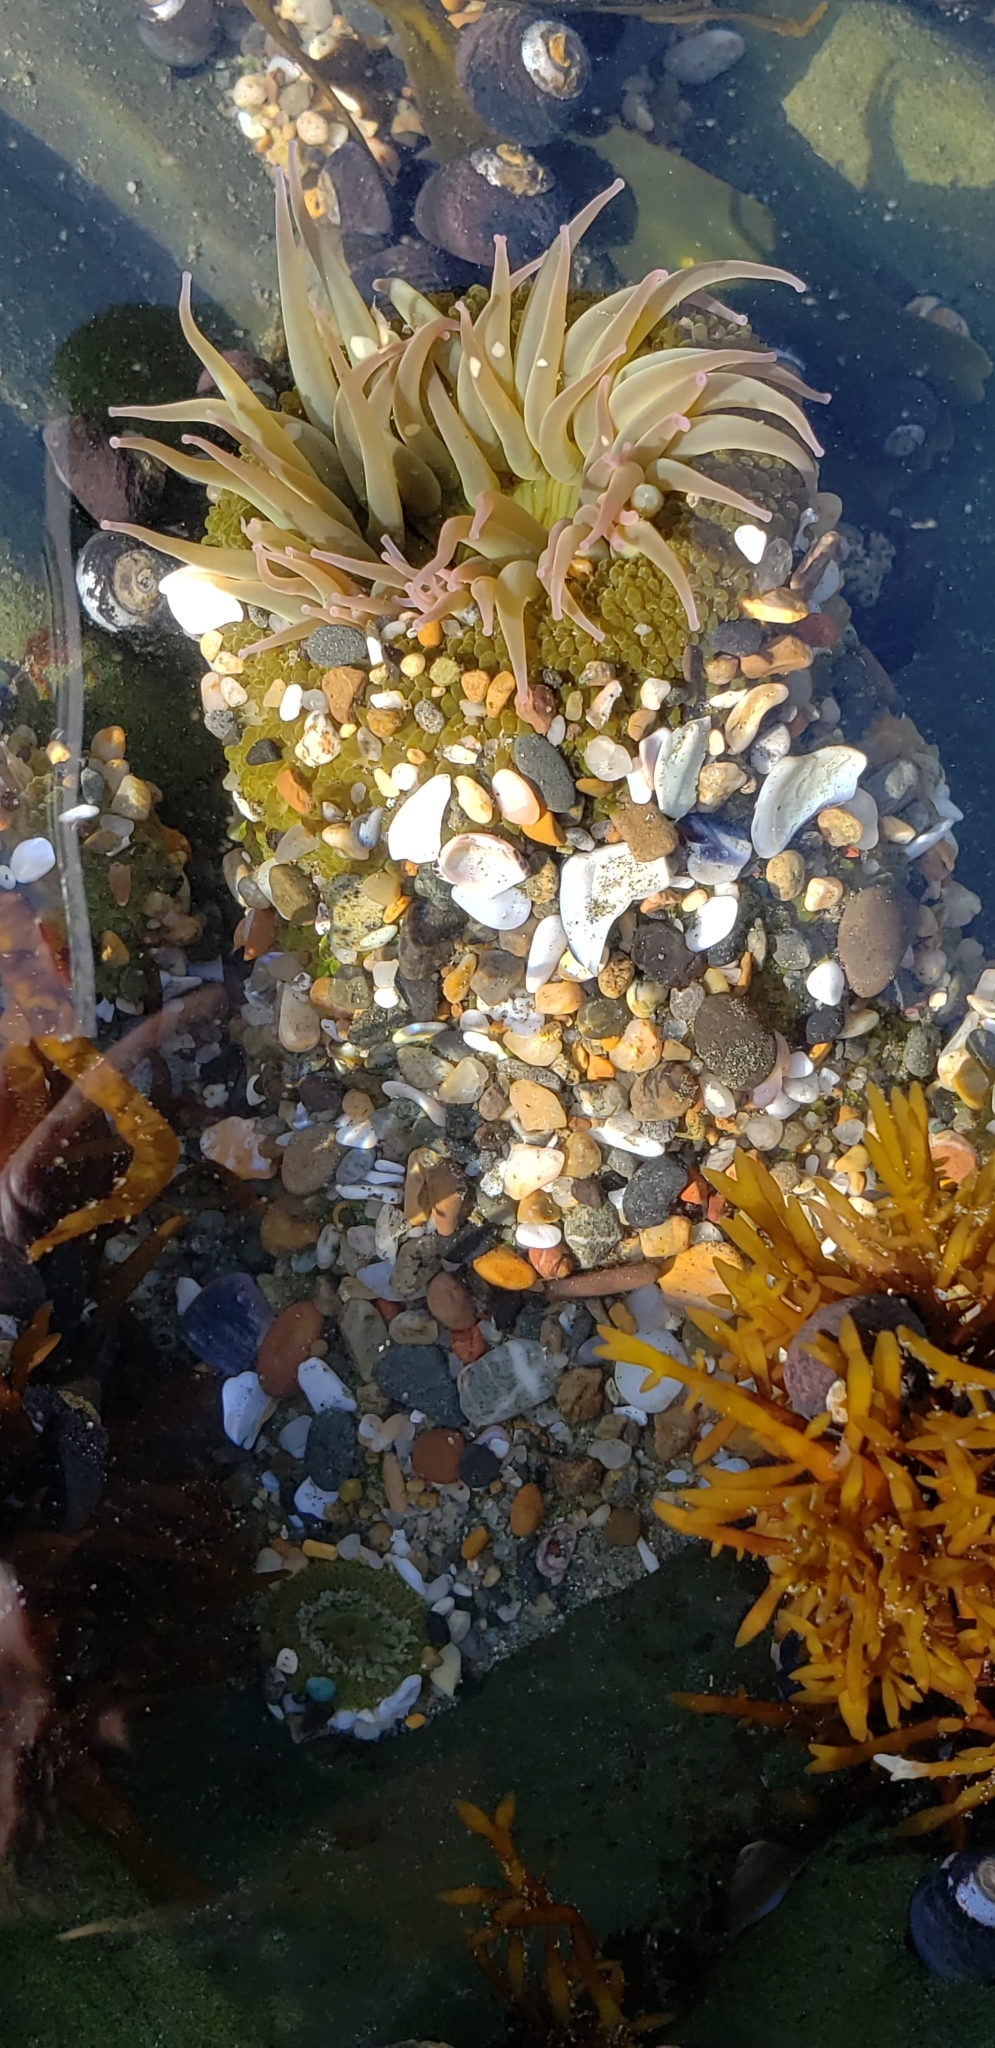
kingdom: Animalia
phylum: Cnidaria
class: Anthozoa
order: Actiniaria
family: Actiniidae
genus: Anthopleura
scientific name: Anthopleura elegantissima
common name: Clonal anemone
